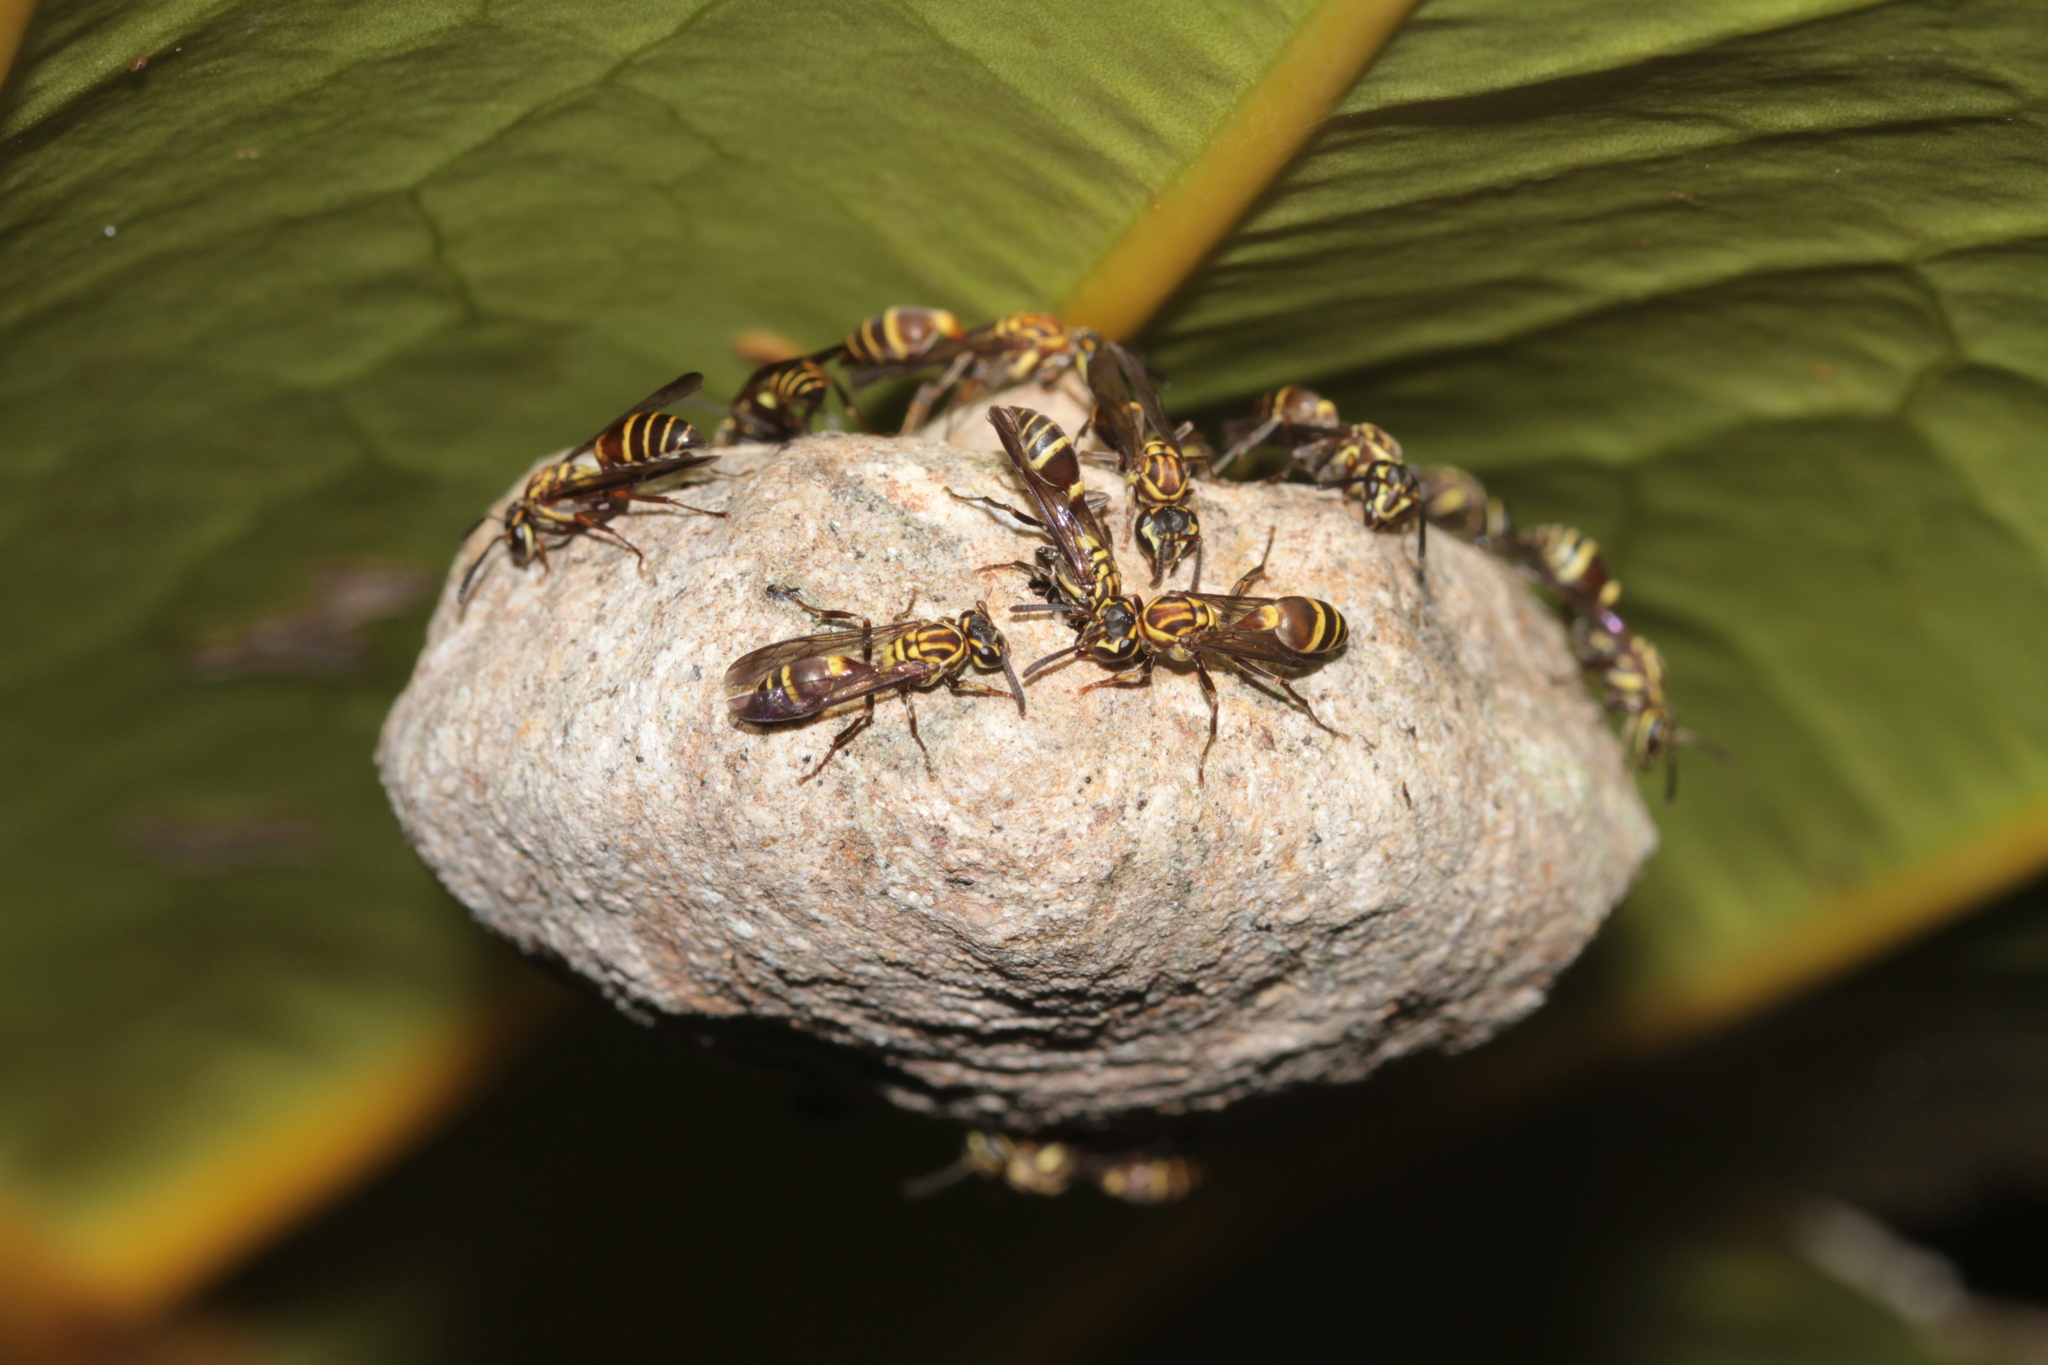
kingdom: Animalia
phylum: Arthropoda
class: Insecta
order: Hymenoptera
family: Eumenidae
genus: Polybia
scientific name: Polybia bistriata
